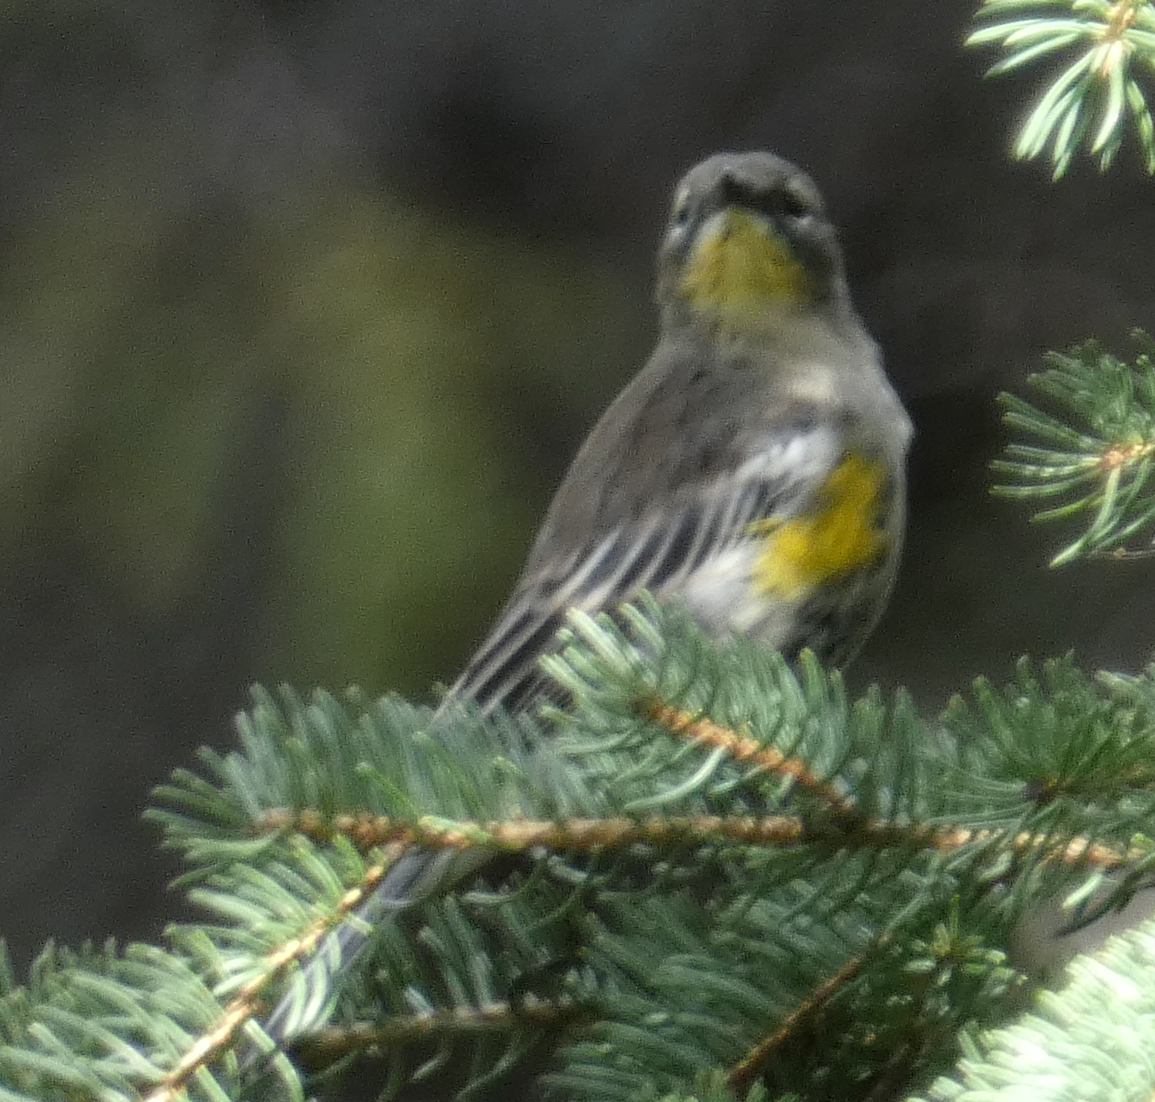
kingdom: Animalia
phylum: Chordata
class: Aves
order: Passeriformes
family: Parulidae
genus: Setophaga
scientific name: Setophaga coronata
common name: Myrtle warbler
